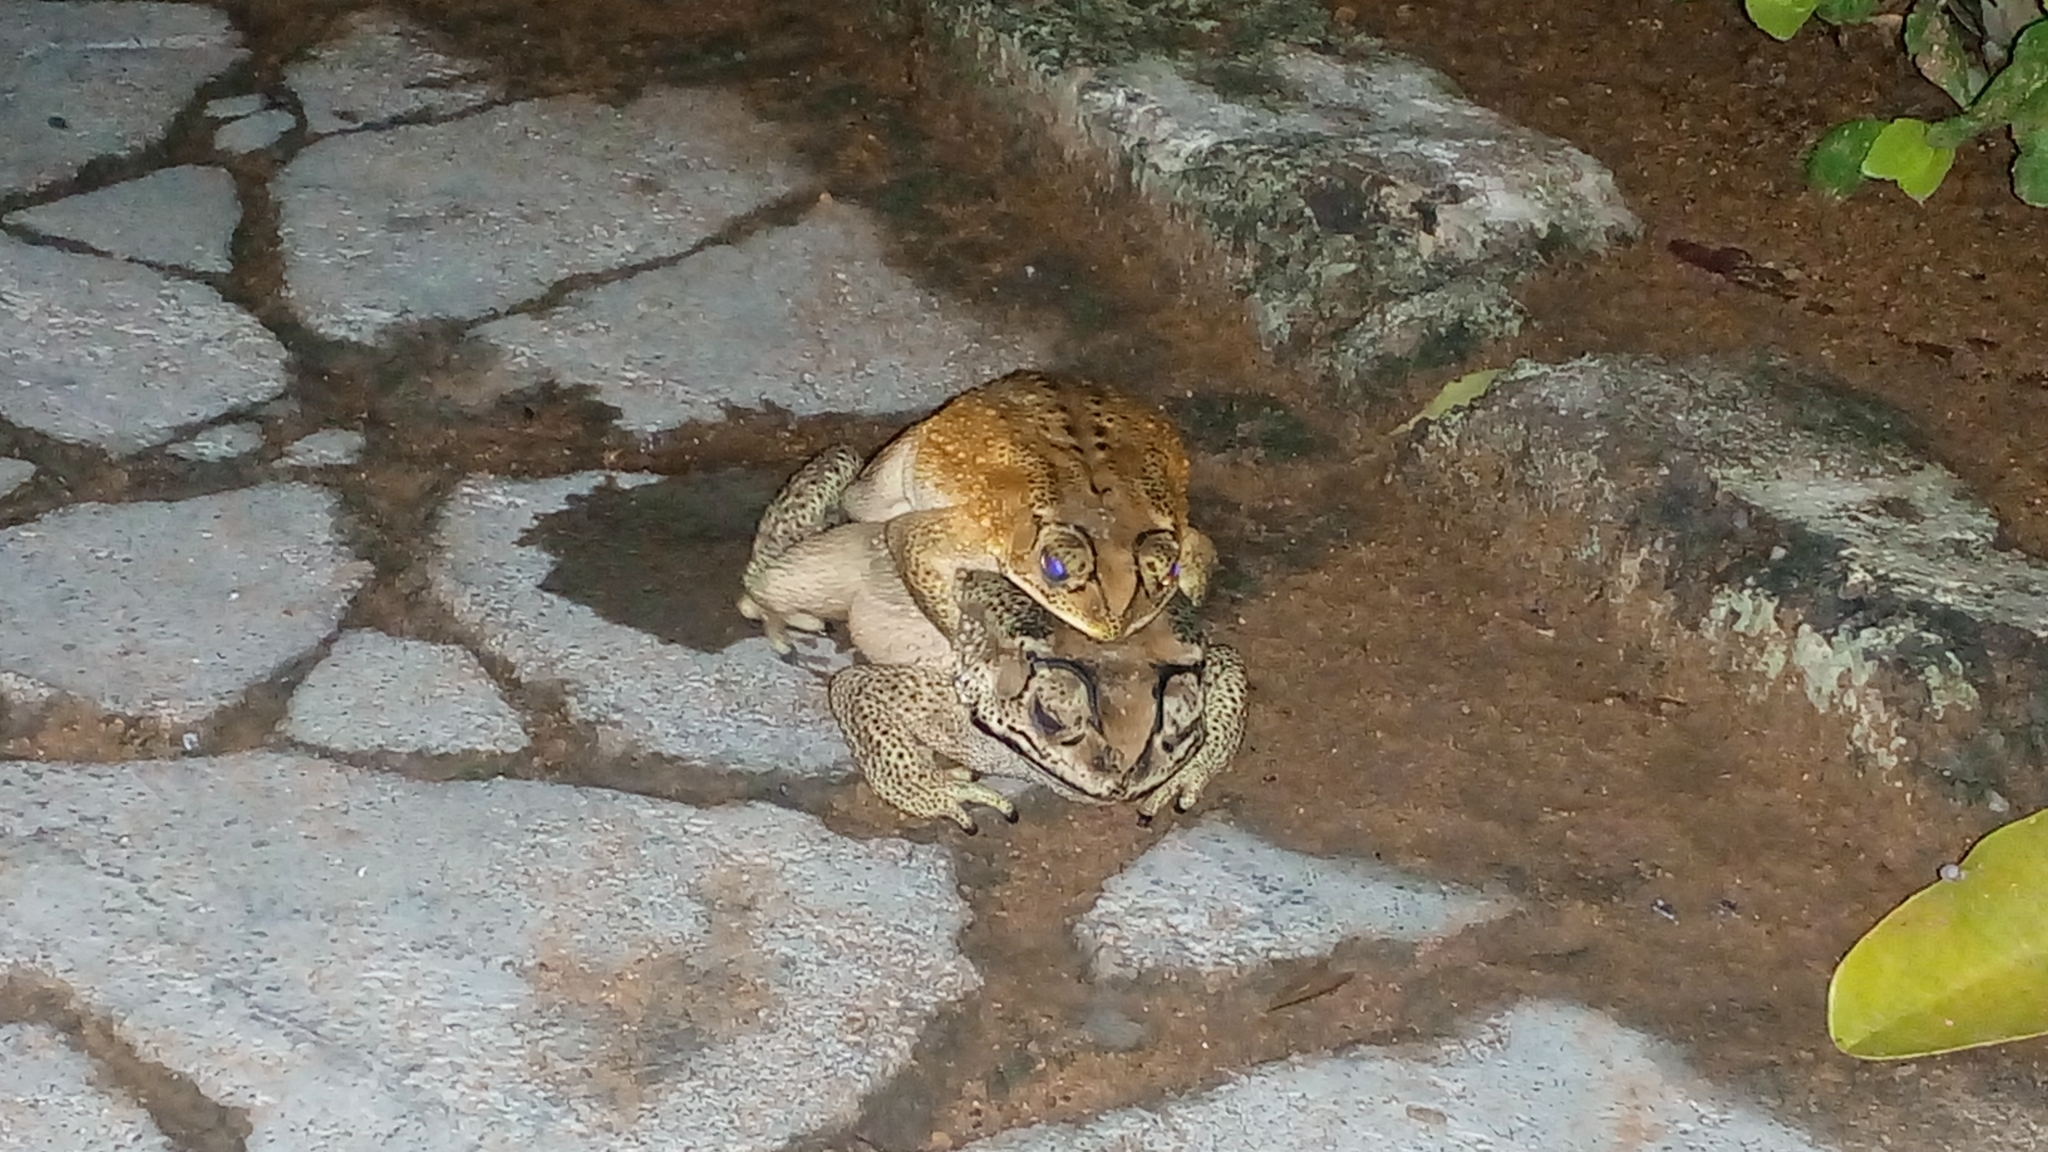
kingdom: Animalia
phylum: Chordata
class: Amphibia
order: Anura
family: Bufonidae
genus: Duttaphrynus
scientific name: Duttaphrynus melanostictus
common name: Common sunda toad
